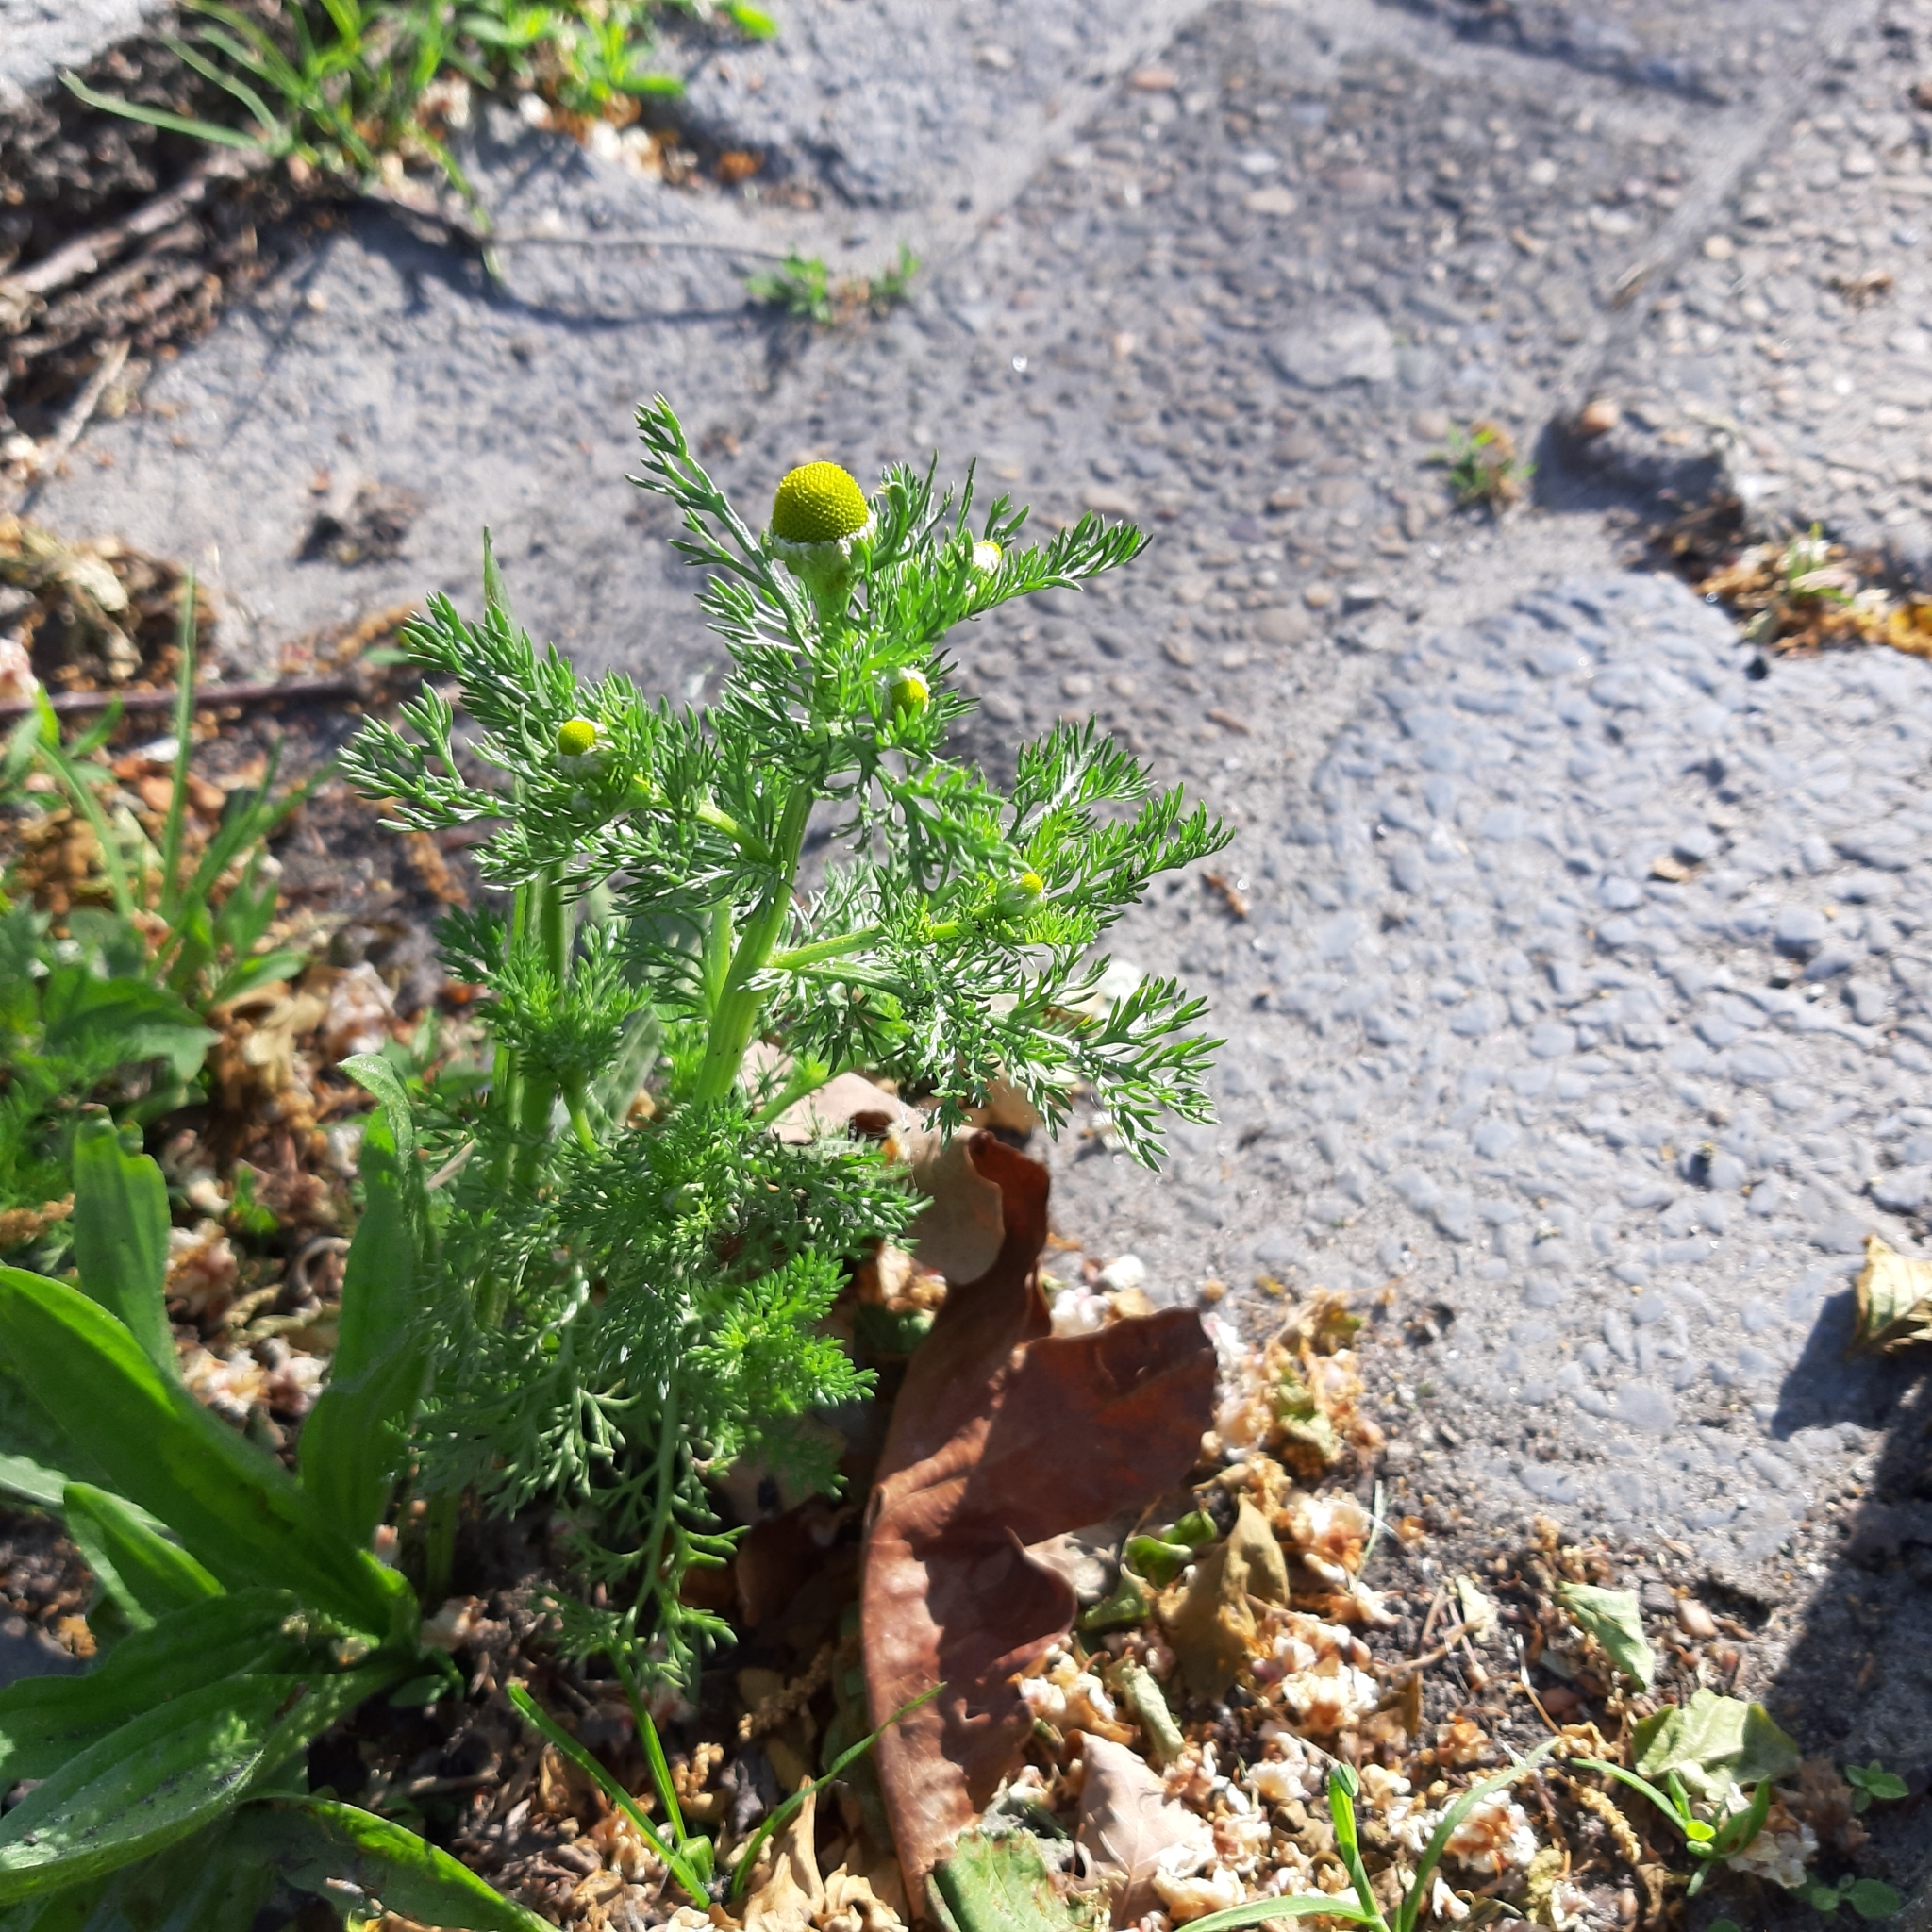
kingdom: Plantae
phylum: Tracheophyta
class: Magnoliopsida
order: Asterales
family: Asteraceae
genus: Matricaria
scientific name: Matricaria discoidea
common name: Disc mayweed
